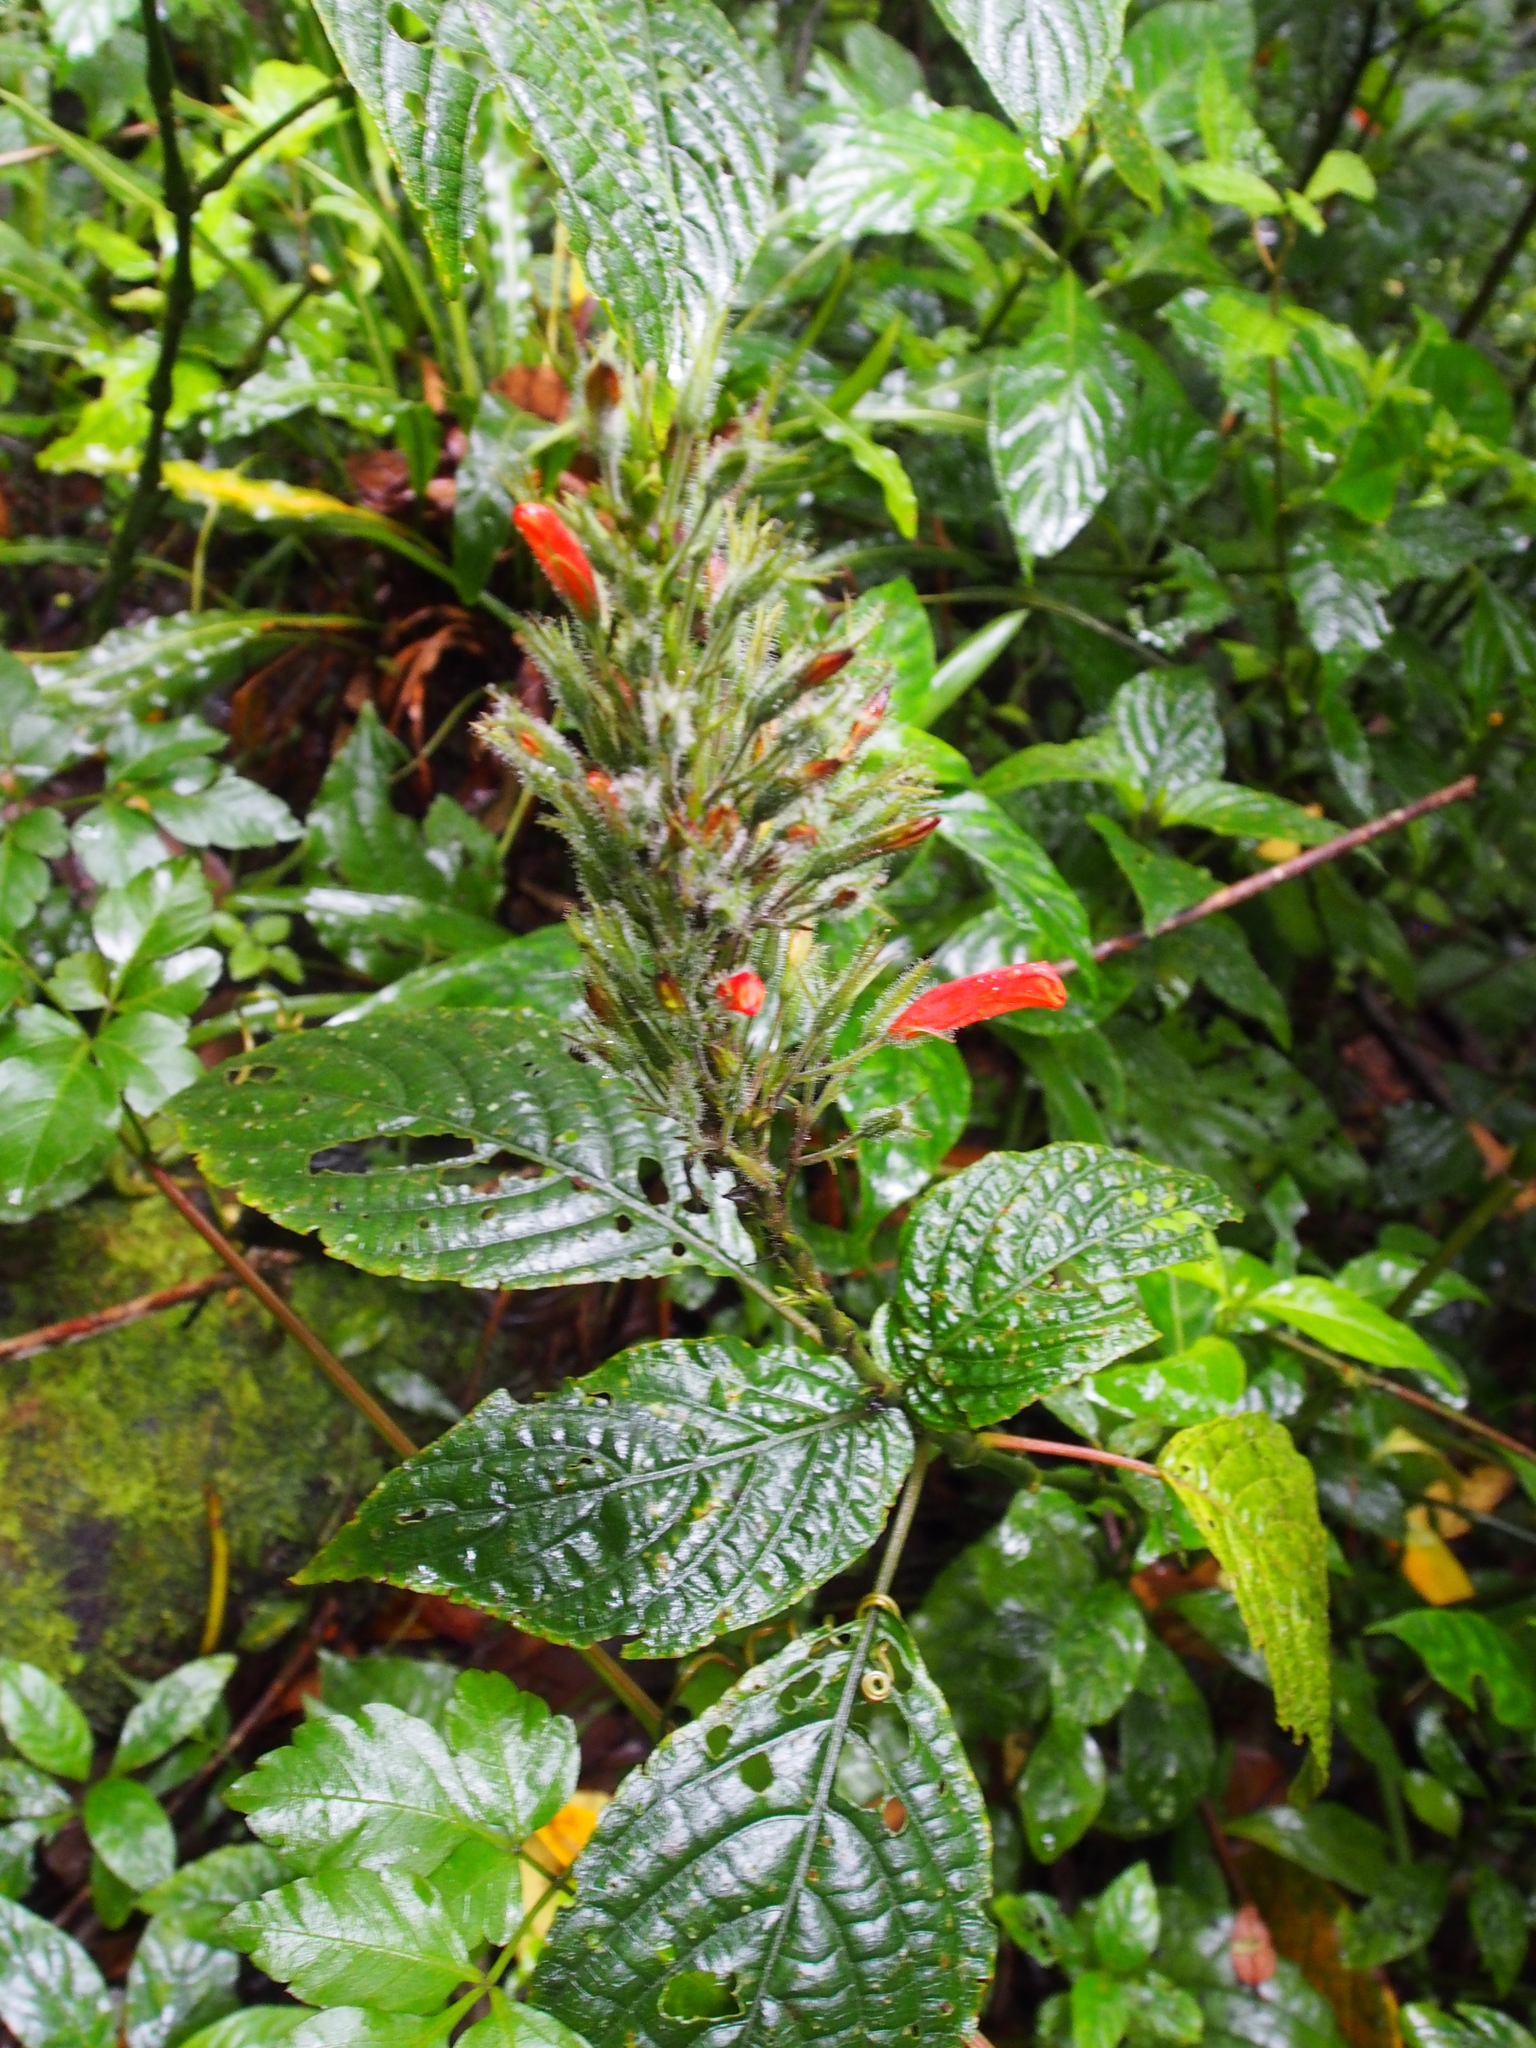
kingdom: Plantae
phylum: Tracheophyta
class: Magnoliopsida
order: Lamiales
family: Acanthaceae
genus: Stenostephanus
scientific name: Stenostephanus leiorhachis
